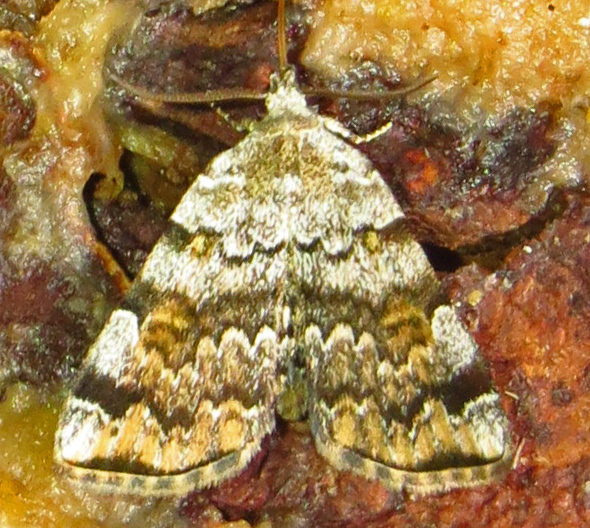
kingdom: Animalia
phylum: Arthropoda
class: Insecta
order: Lepidoptera
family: Erebidae
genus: Idia
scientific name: Idia americalis
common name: American idia moth
